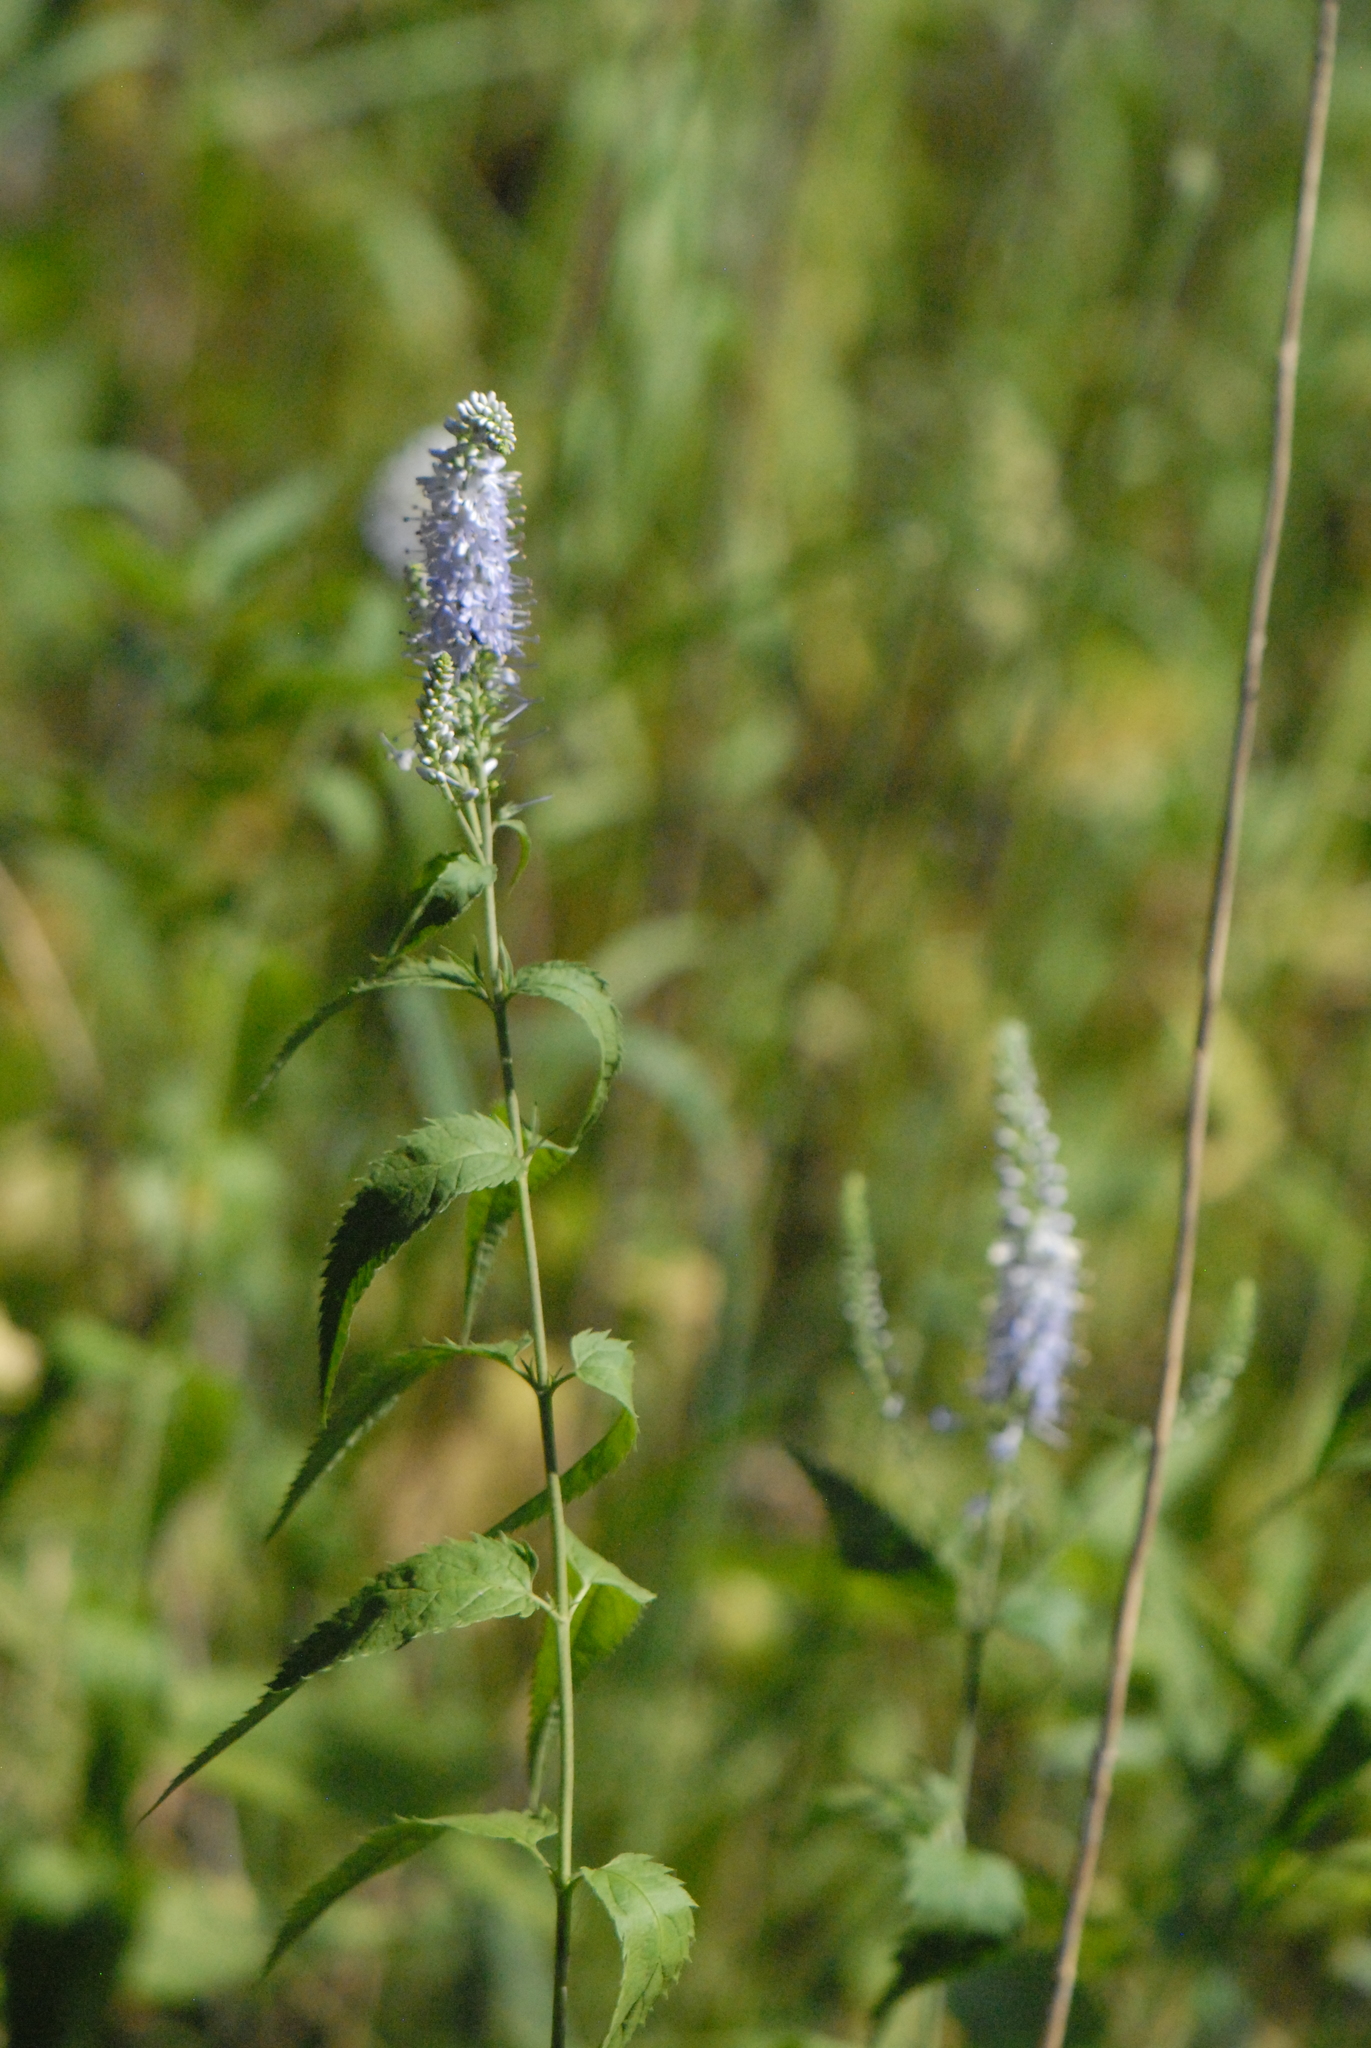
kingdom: Plantae
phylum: Tracheophyta
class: Magnoliopsida
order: Lamiales
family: Plantaginaceae
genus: Veronica
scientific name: Veronica longifolia
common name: Garden speedwell
